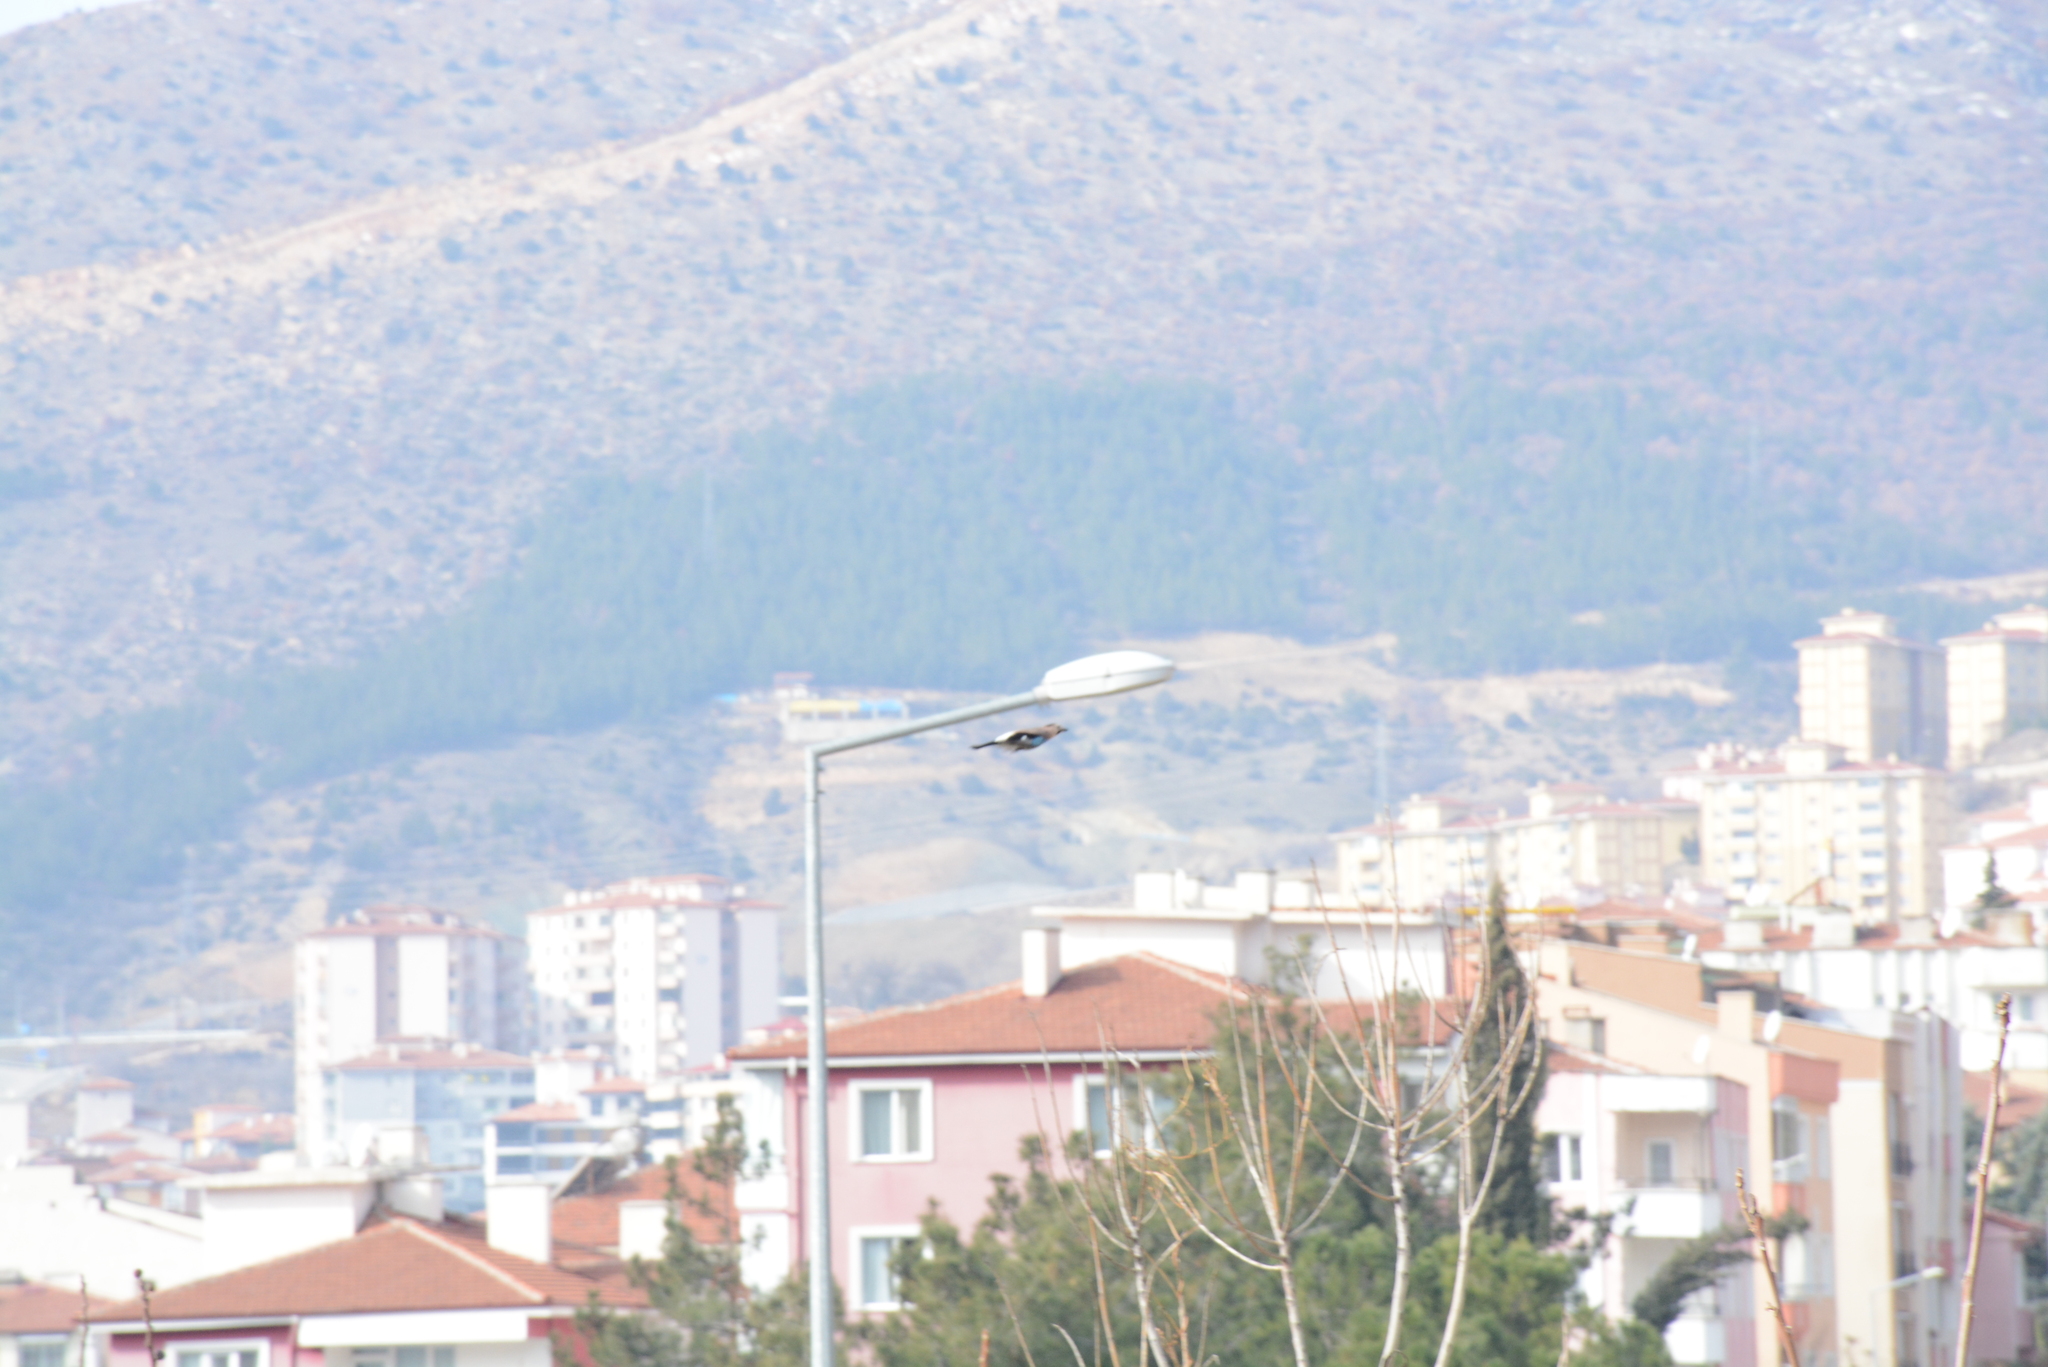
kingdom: Animalia
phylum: Chordata
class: Aves
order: Passeriformes
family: Corvidae
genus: Garrulus
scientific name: Garrulus glandarius
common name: Eurasian jay
